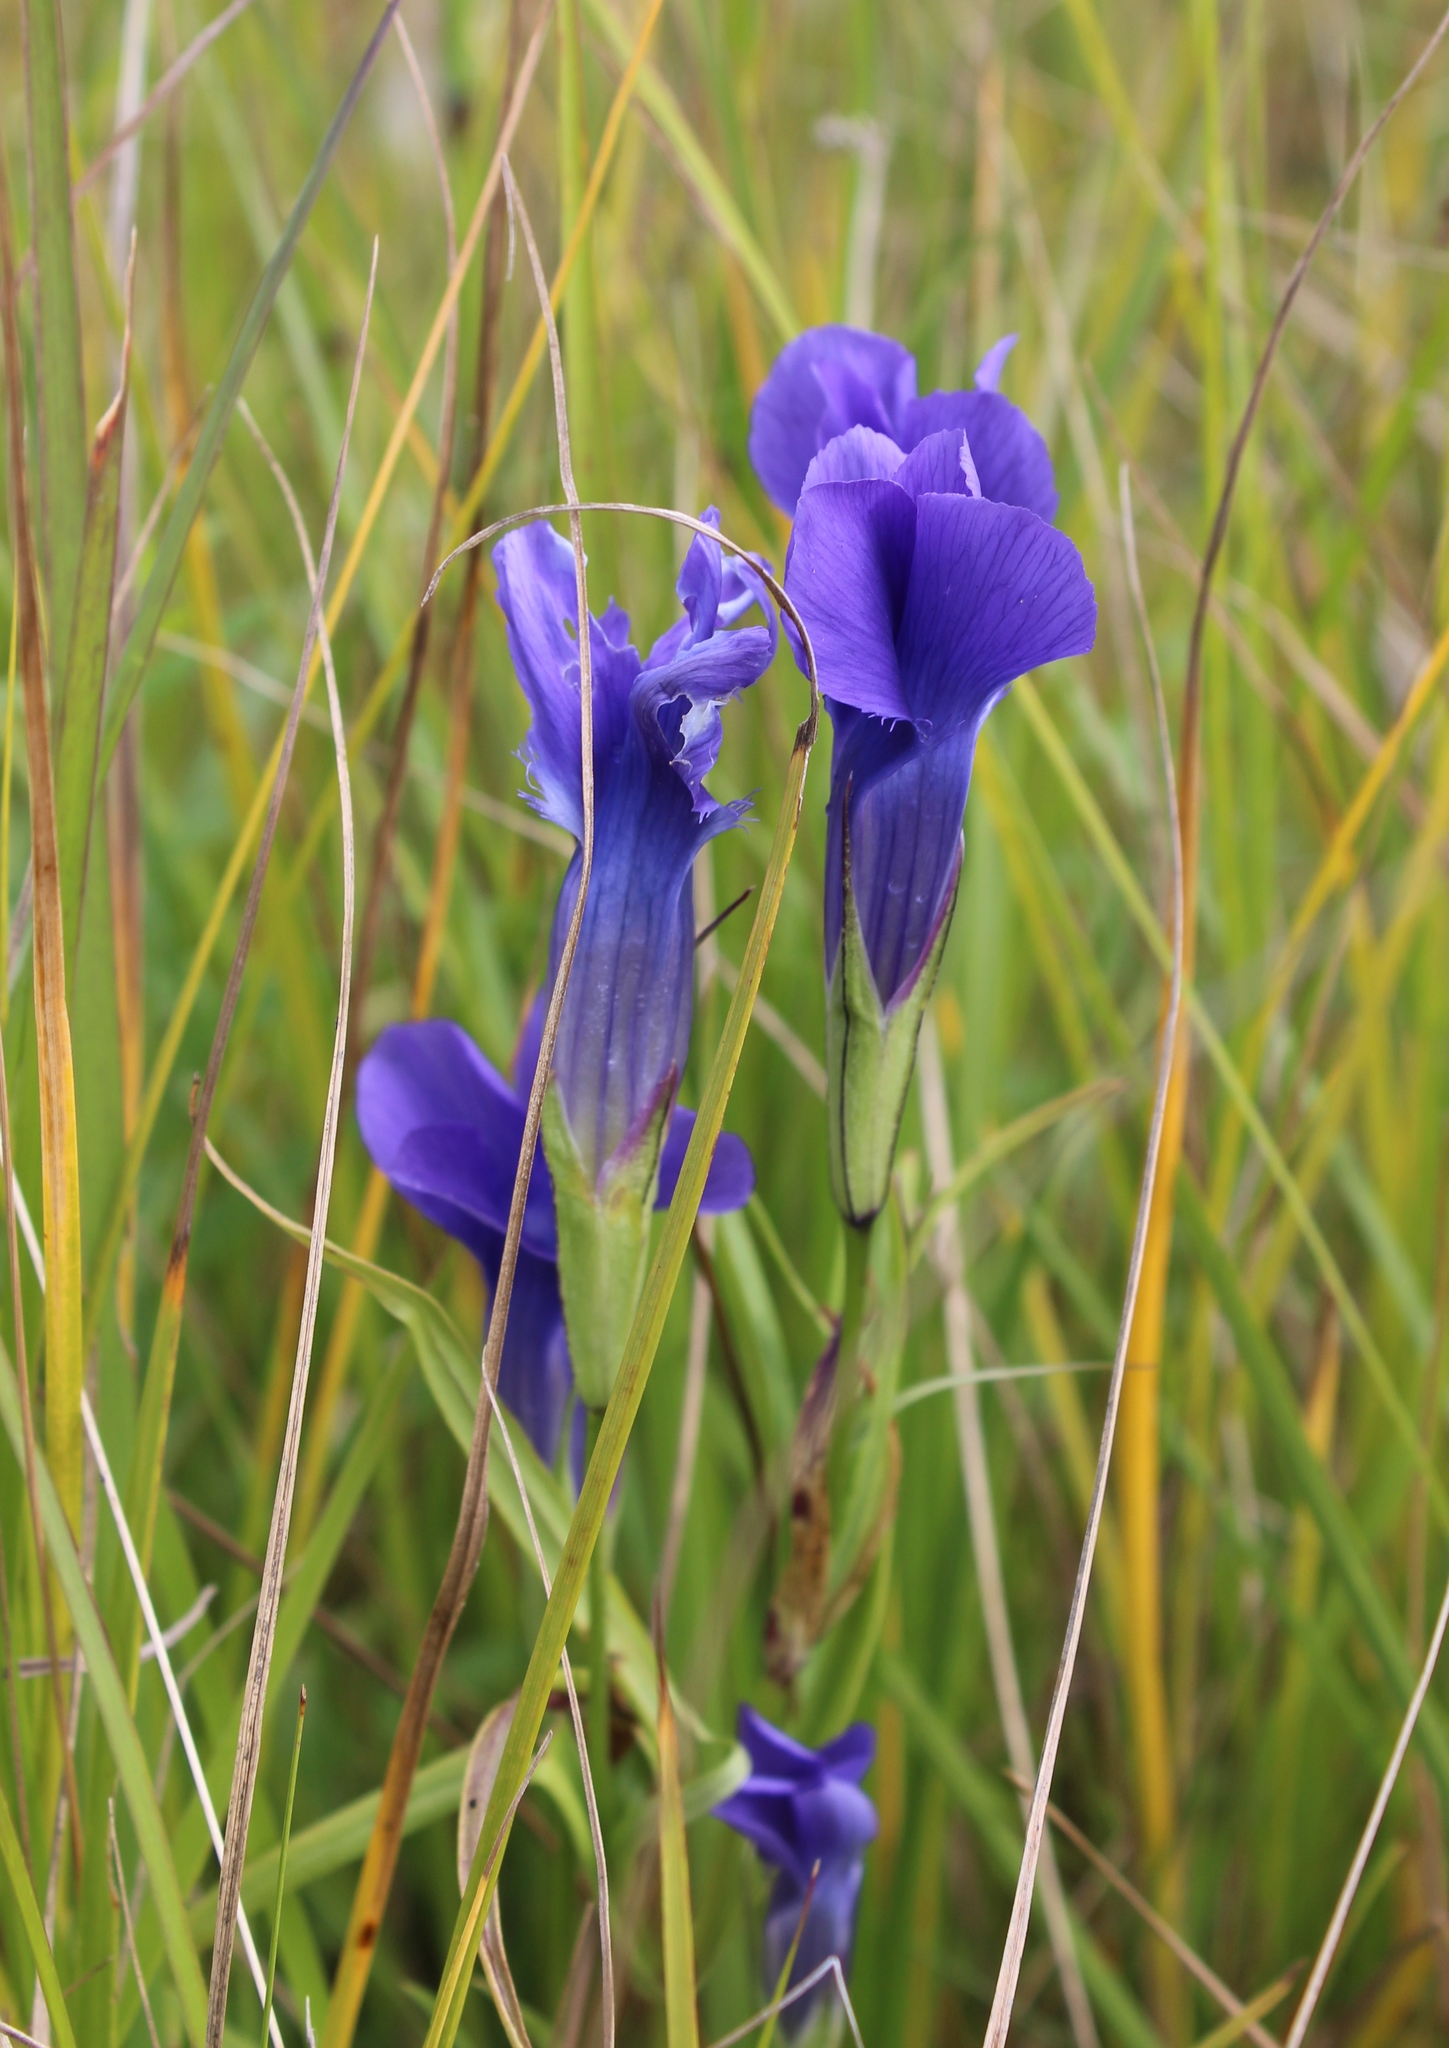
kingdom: Plantae
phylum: Tracheophyta
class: Magnoliopsida
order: Gentianales
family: Gentianaceae
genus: Gentianopsis
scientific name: Gentianopsis barbata
